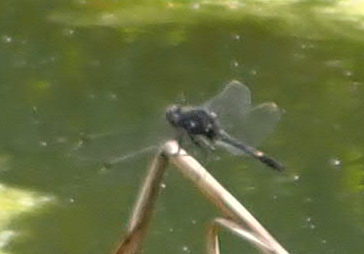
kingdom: Animalia
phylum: Arthropoda
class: Insecta
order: Odonata
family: Libellulidae
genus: Leucorrhinia
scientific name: Leucorrhinia intacta
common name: Dot-tailed whiteface
